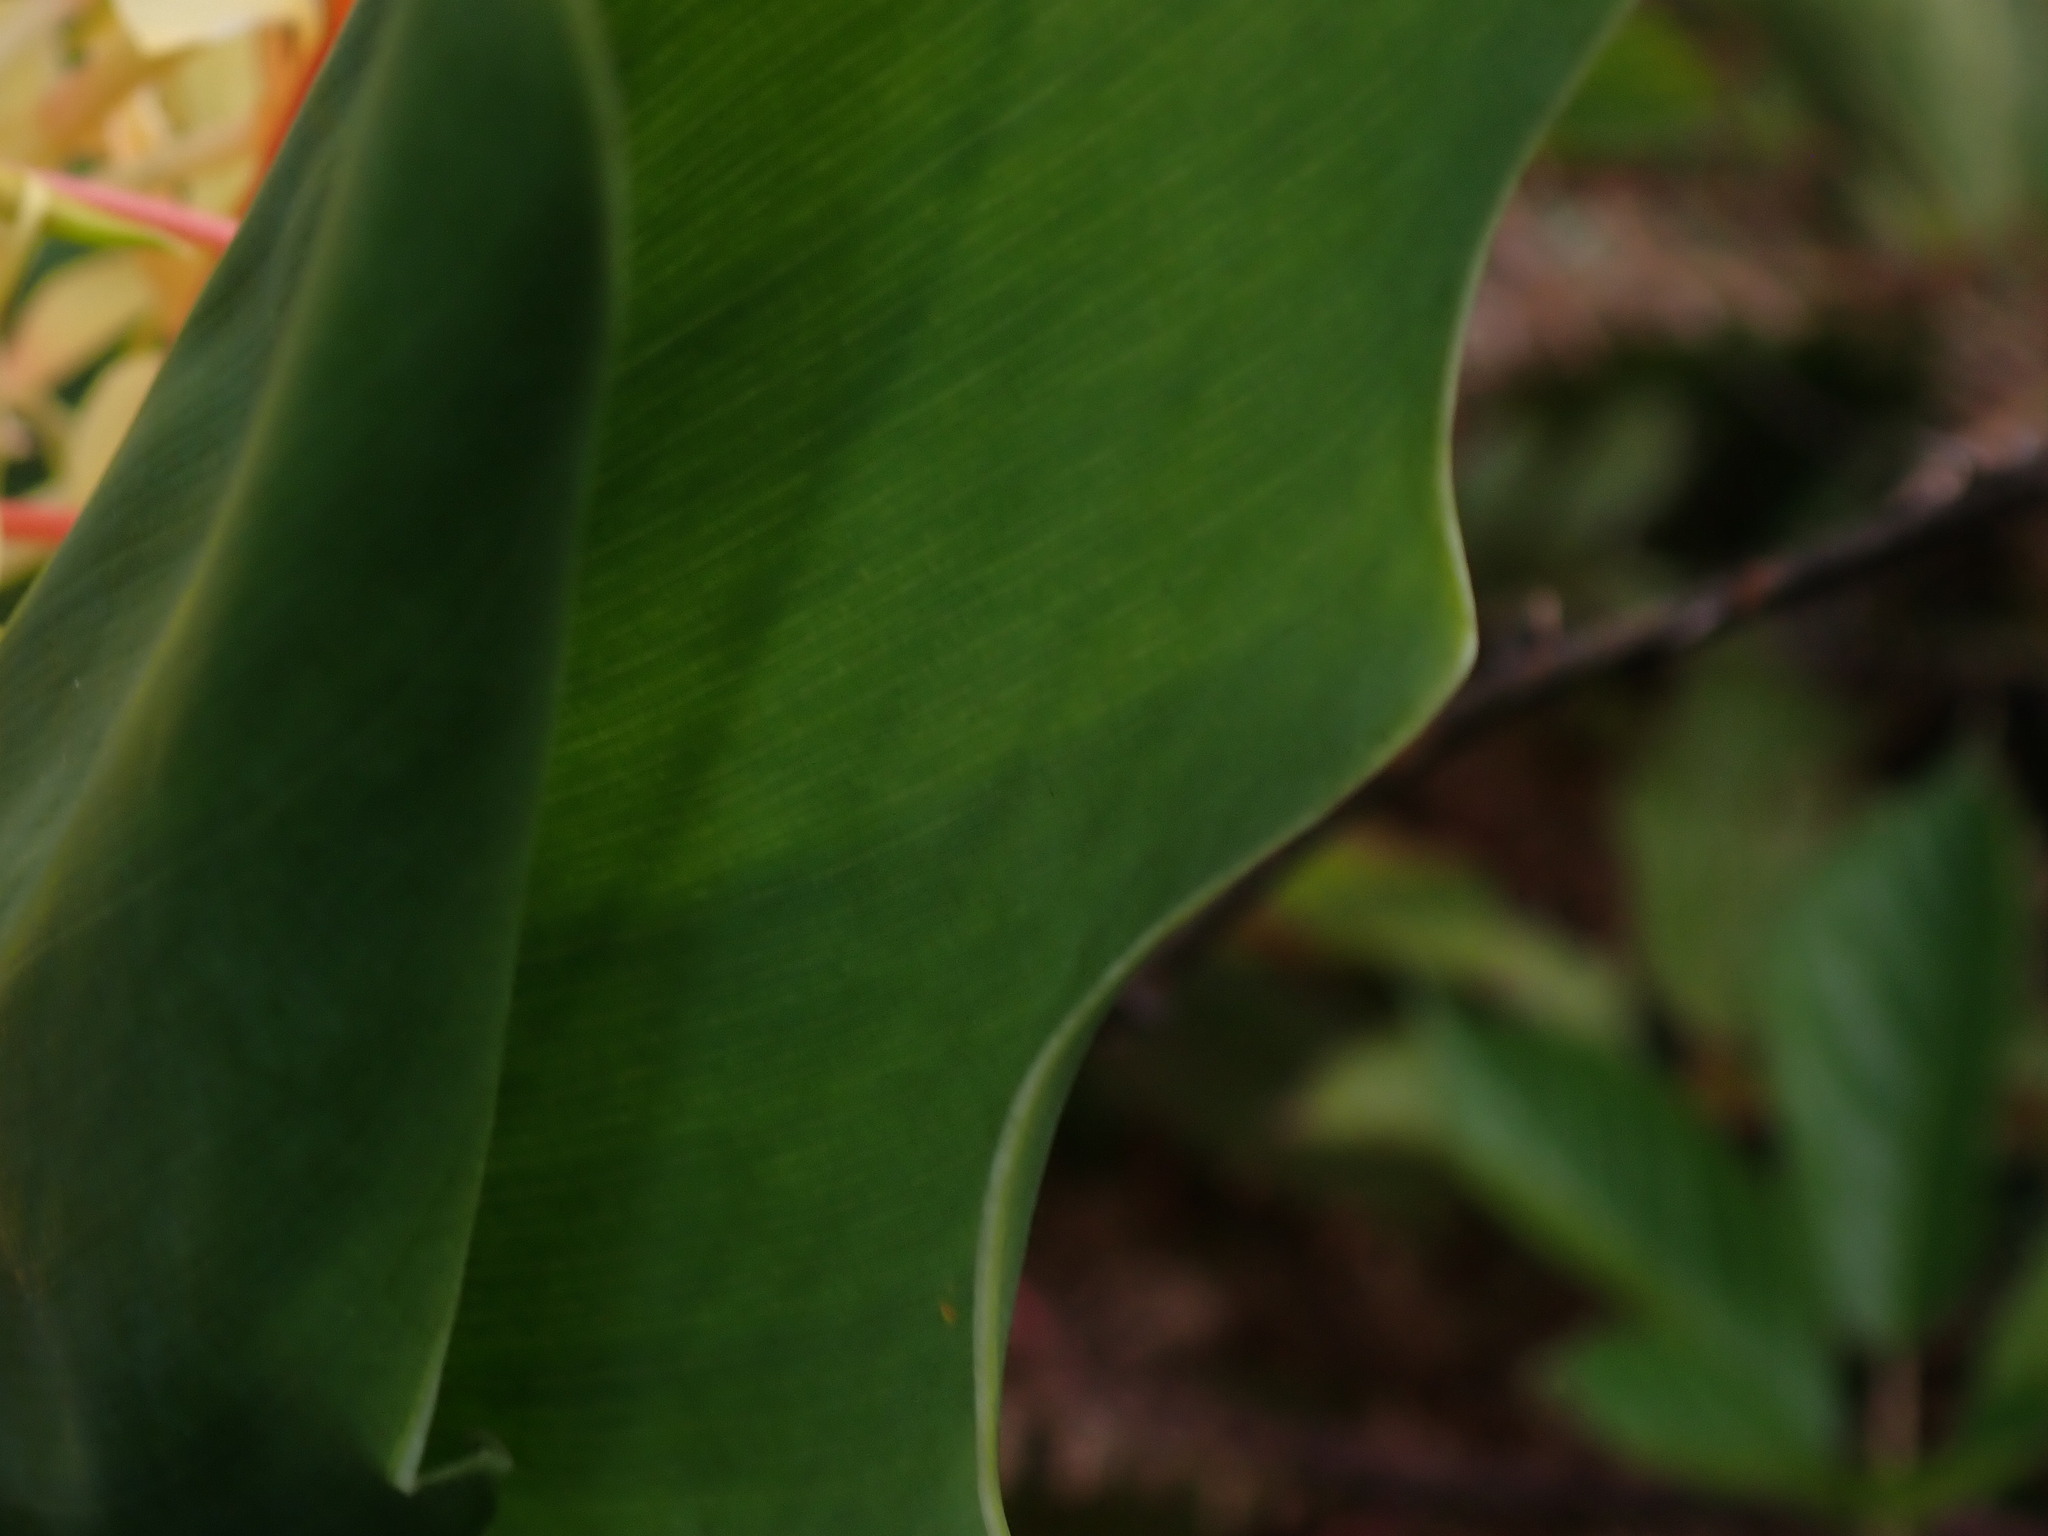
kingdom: Plantae
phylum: Tracheophyta
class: Liliopsida
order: Zingiberales
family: Zingiberaceae
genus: Hedychium
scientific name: Hedychium gardnerianum
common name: Himalayan ginger
